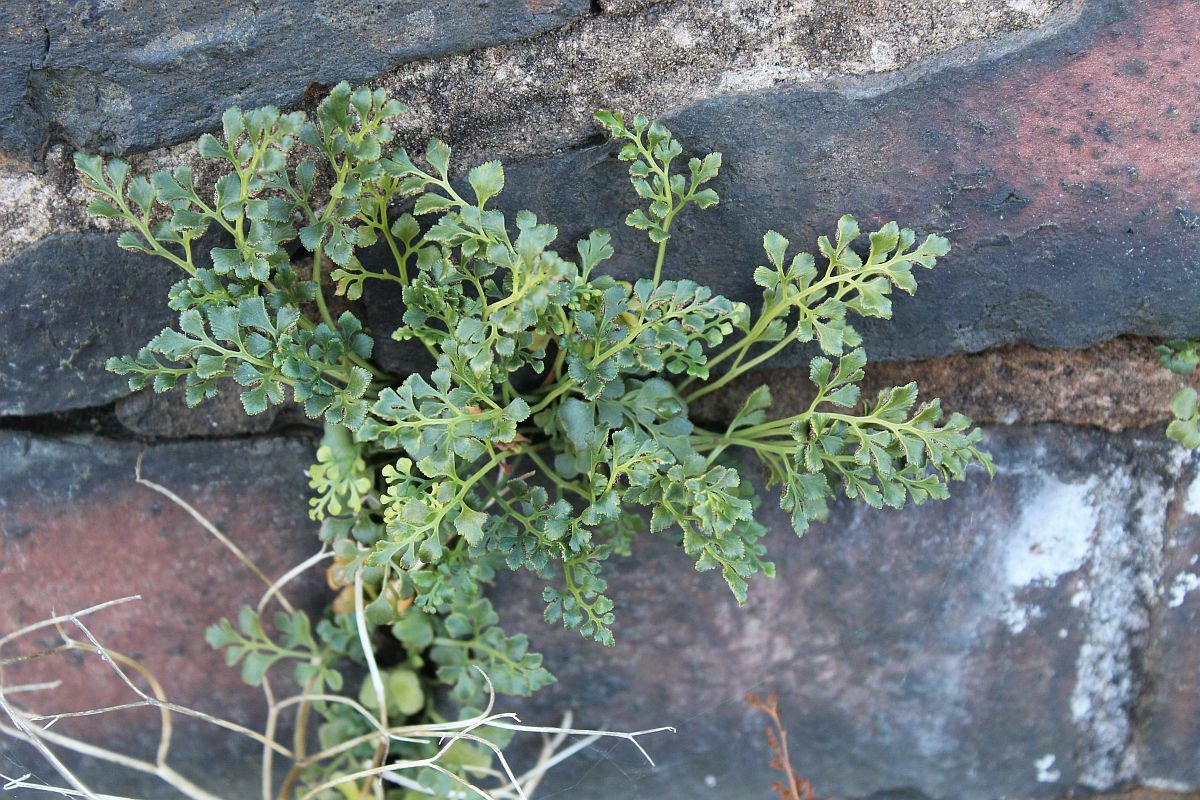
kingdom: Plantae
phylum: Tracheophyta
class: Polypodiopsida
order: Polypodiales
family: Aspleniaceae
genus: Asplenium
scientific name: Asplenium ruta-muraria
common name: Wall-rue
